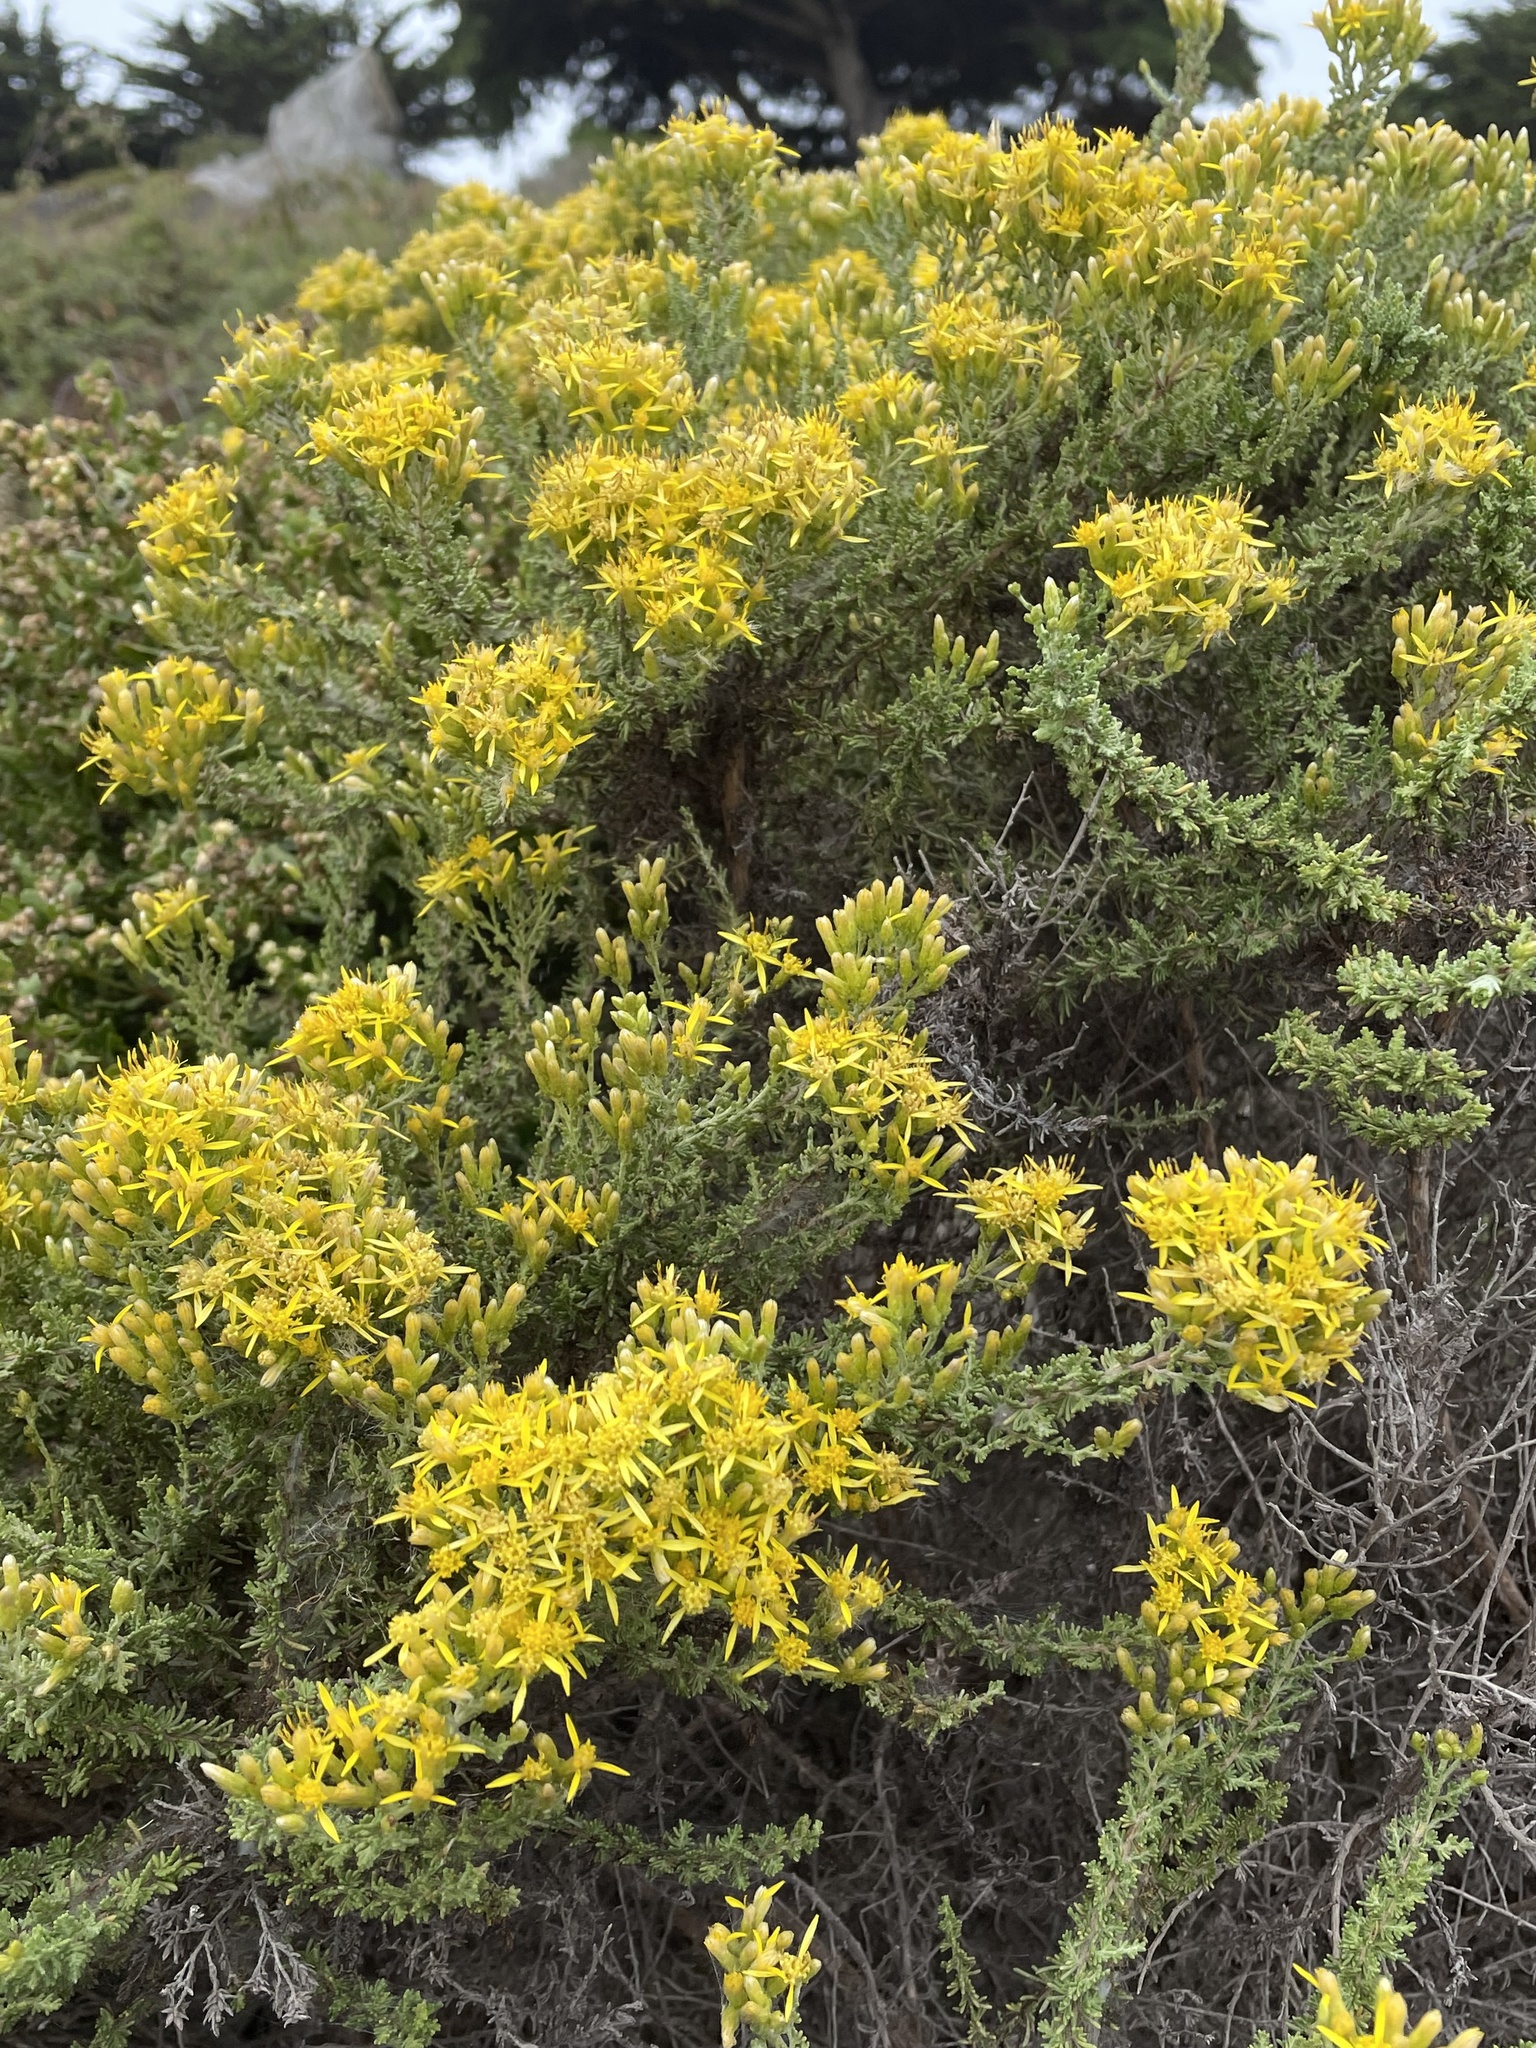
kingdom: Plantae
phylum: Tracheophyta
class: Magnoliopsida
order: Asterales
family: Asteraceae
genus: Ericameria
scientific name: Ericameria ericoides
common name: California goldenbush
